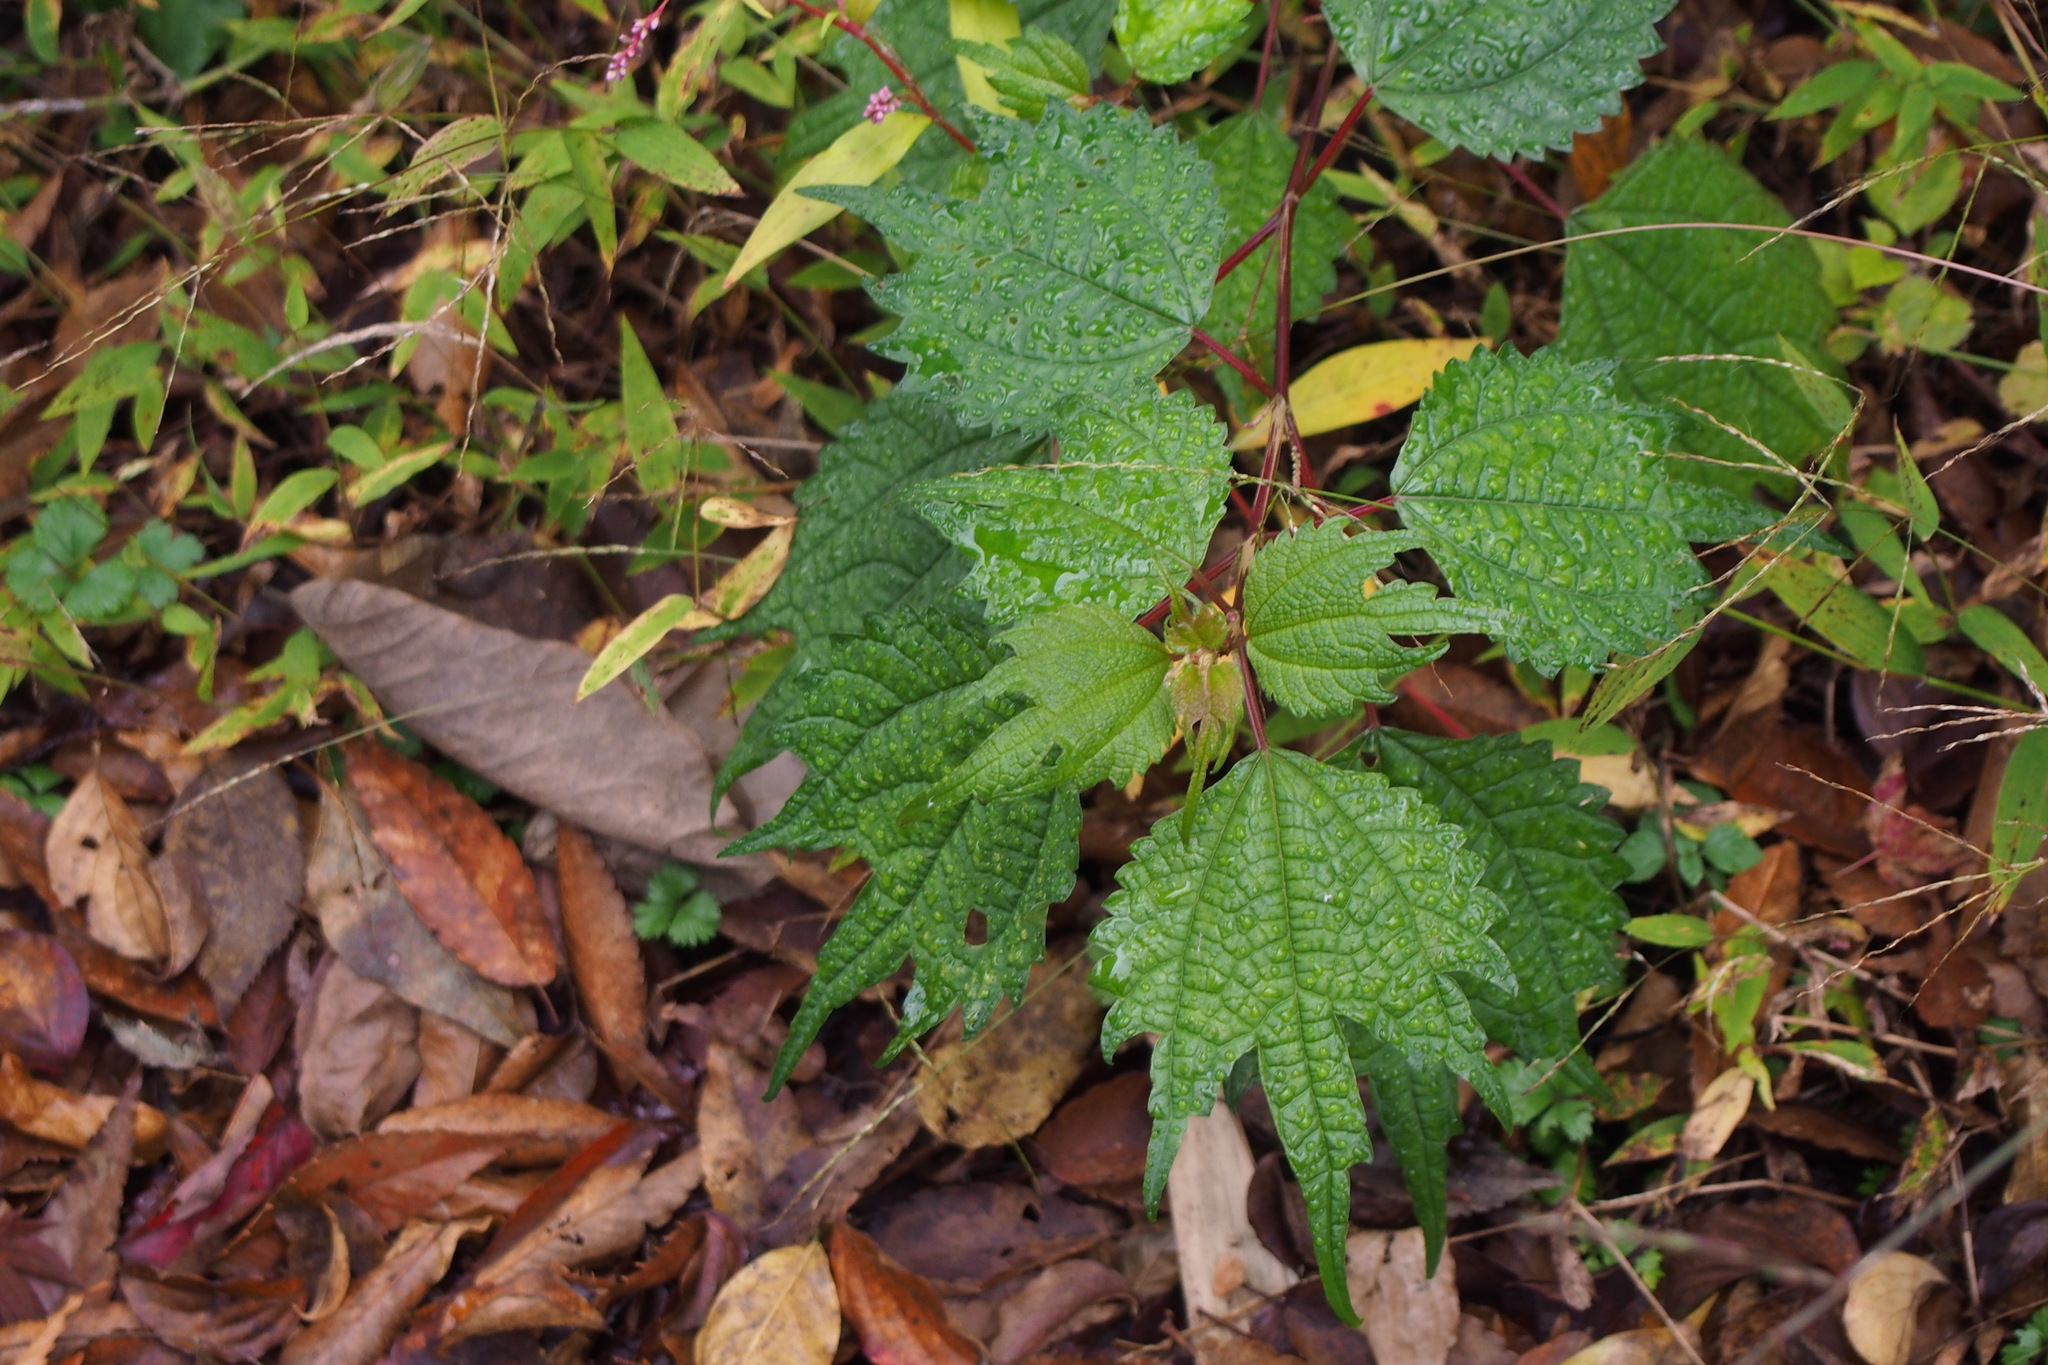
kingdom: Plantae
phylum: Tracheophyta
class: Magnoliopsida
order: Rosales
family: Urticaceae
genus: Boehmeria
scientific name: Boehmeria japonica
